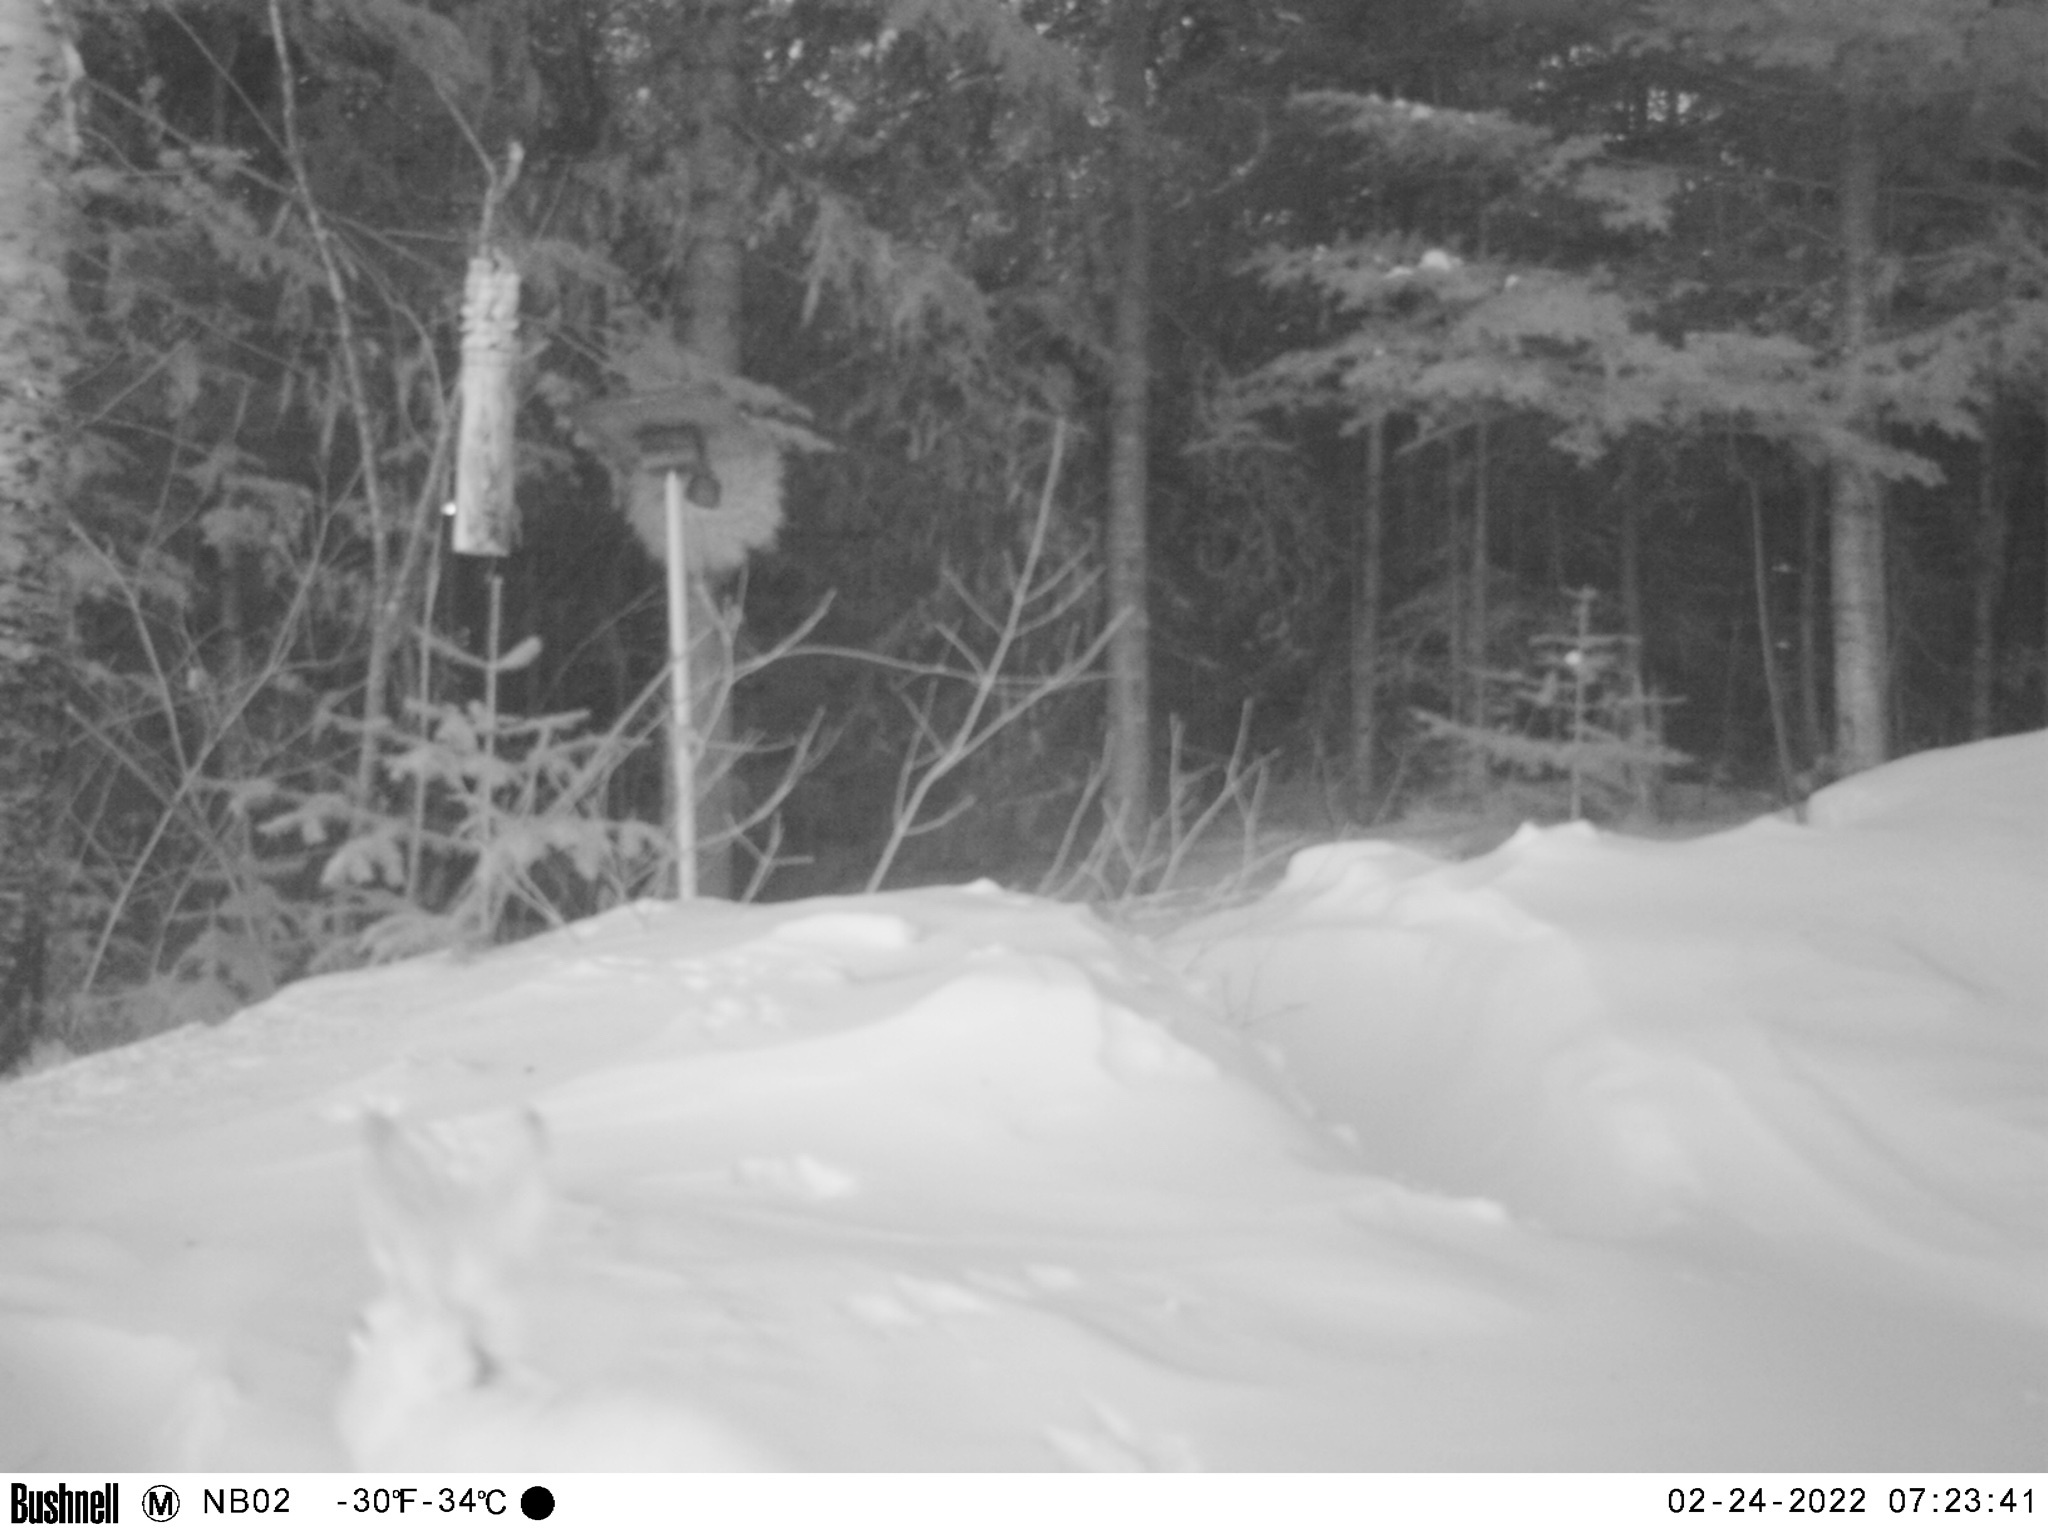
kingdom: Animalia
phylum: Chordata
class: Mammalia
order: Lagomorpha
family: Leporidae
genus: Lepus
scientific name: Lepus americanus
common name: Snowshoe hare
